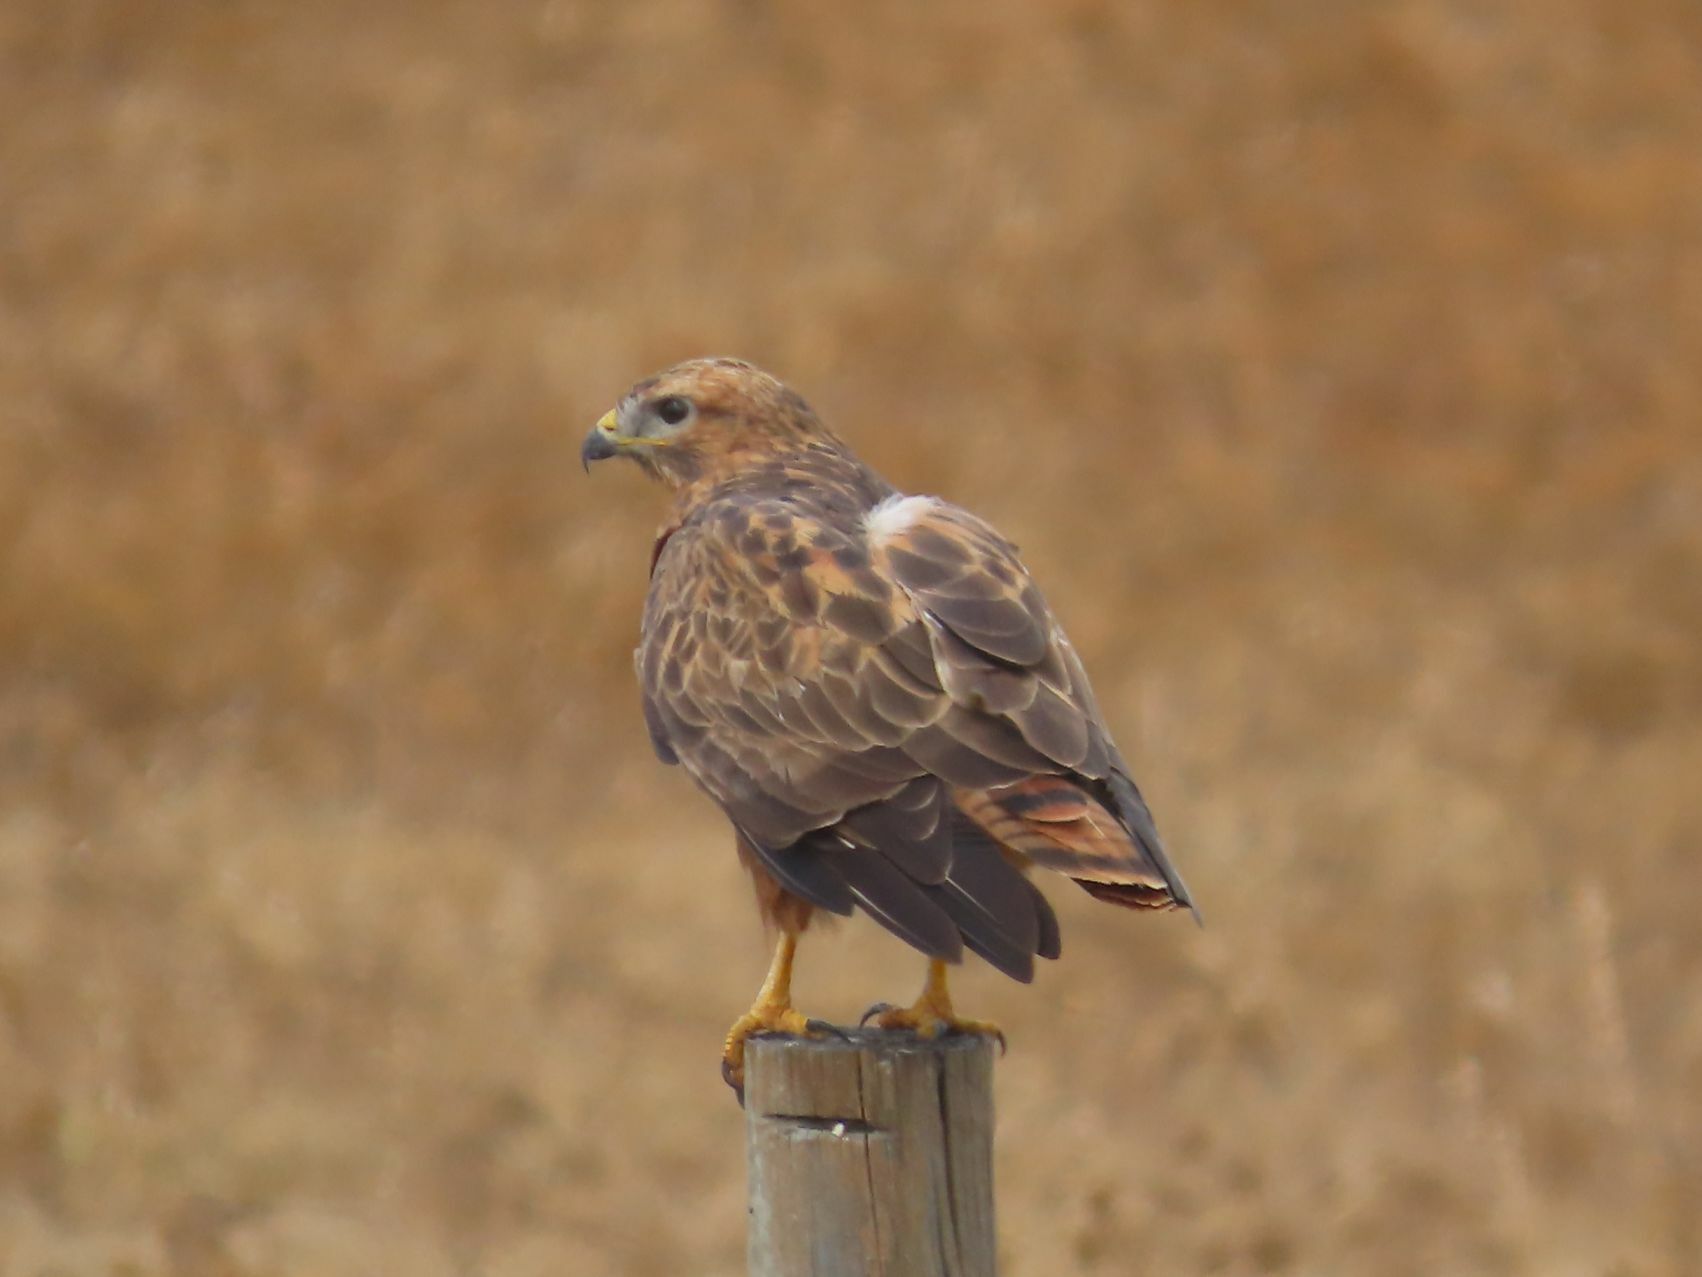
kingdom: Animalia
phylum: Chordata
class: Aves
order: Accipitriformes
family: Accipitridae
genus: Buteo
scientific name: Buteo buteo
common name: Common buzzard
